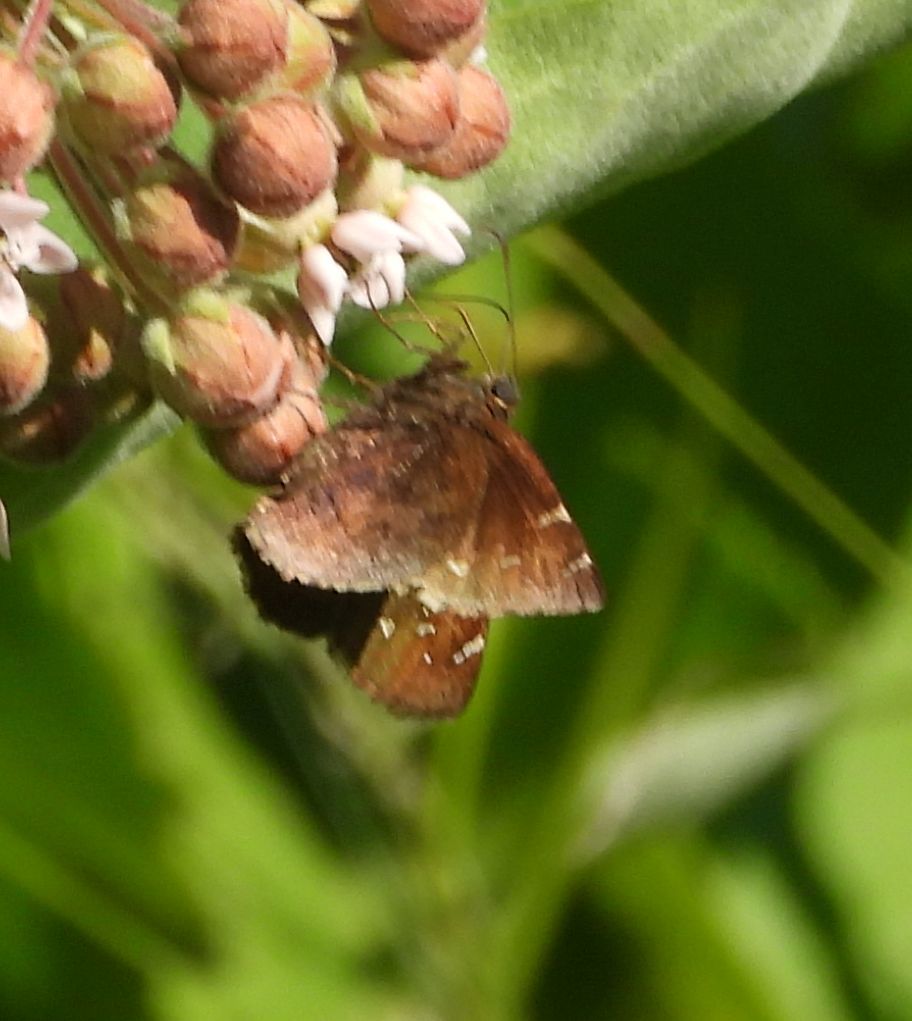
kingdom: Animalia
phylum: Arthropoda
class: Insecta
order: Lepidoptera
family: Hesperiidae
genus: Thorybes
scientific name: Thorybes pylades
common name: Northern cloudywing
